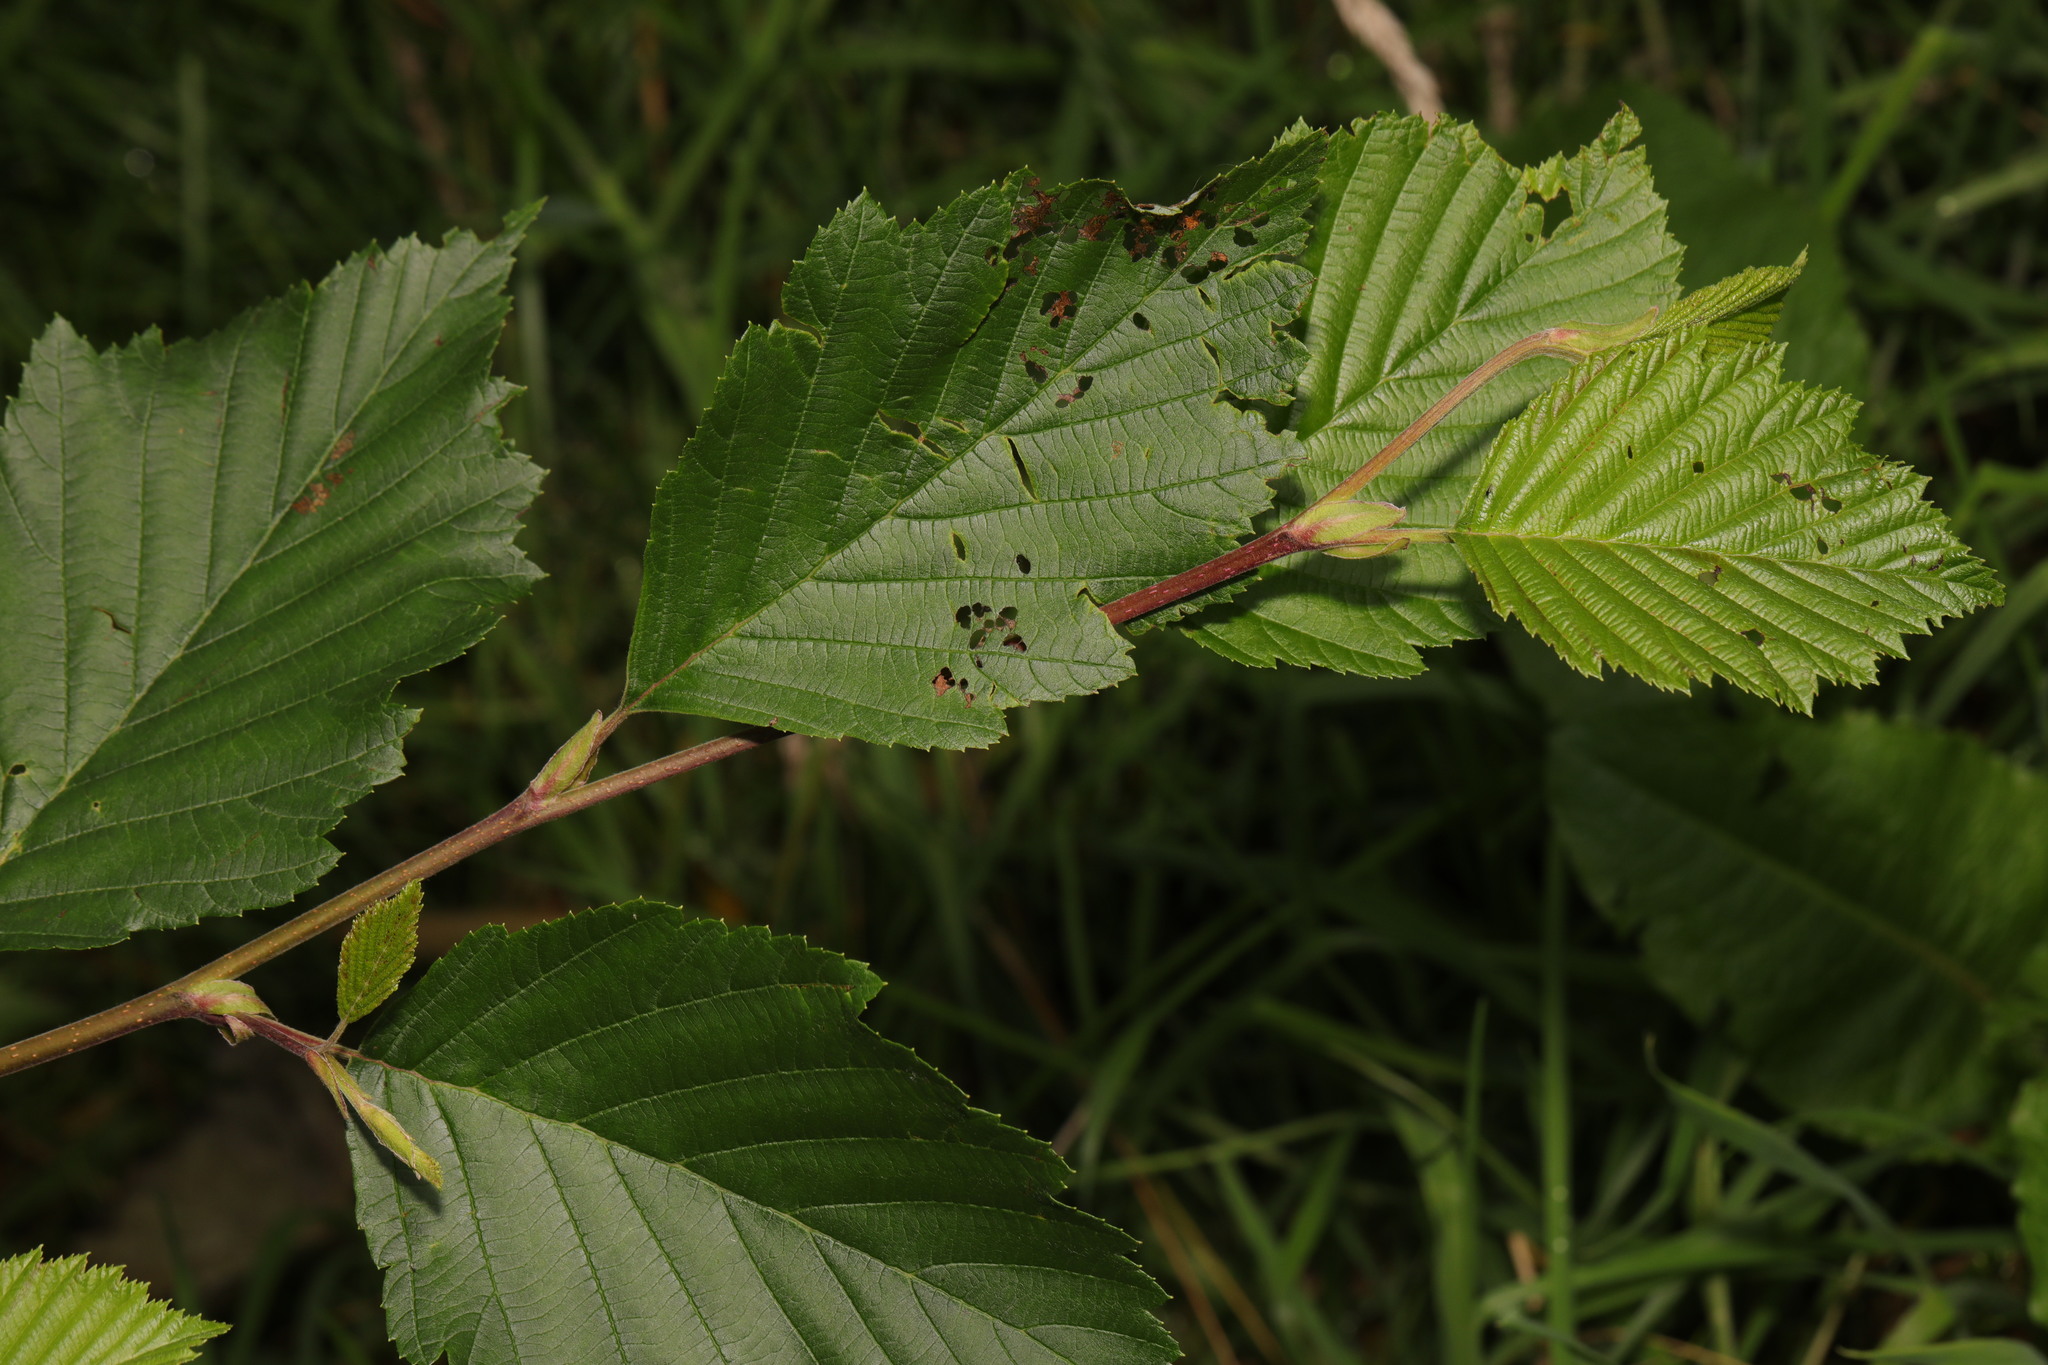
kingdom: Plantae
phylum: Tracheophyta
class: Magnoliopsida
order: Fagales
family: Betulaceae
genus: Alnus
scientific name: Alnus incana
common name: Grey alder
